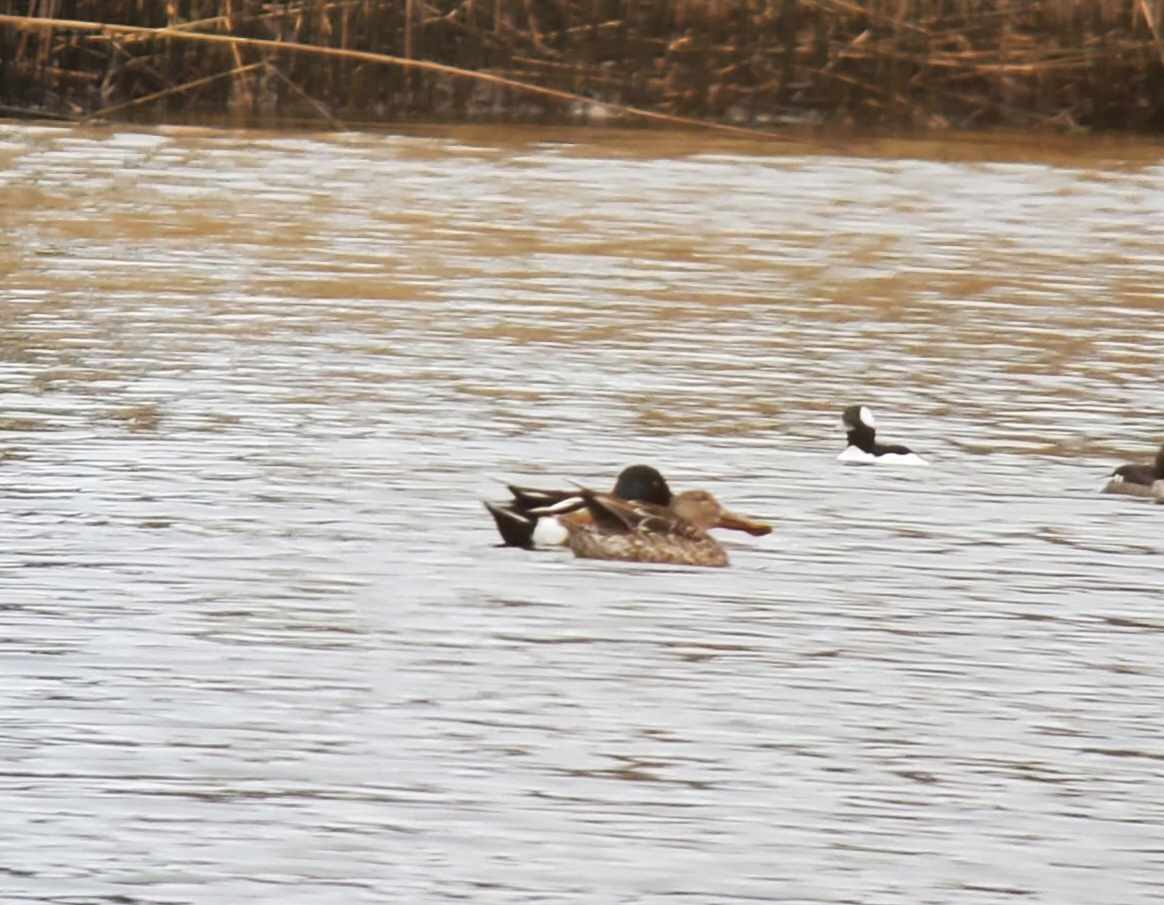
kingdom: Animalia
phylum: Chordata
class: Aves
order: Anseriformes
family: Anatidae
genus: Spatula
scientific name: Spatula clypeata
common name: Northern shoveler
